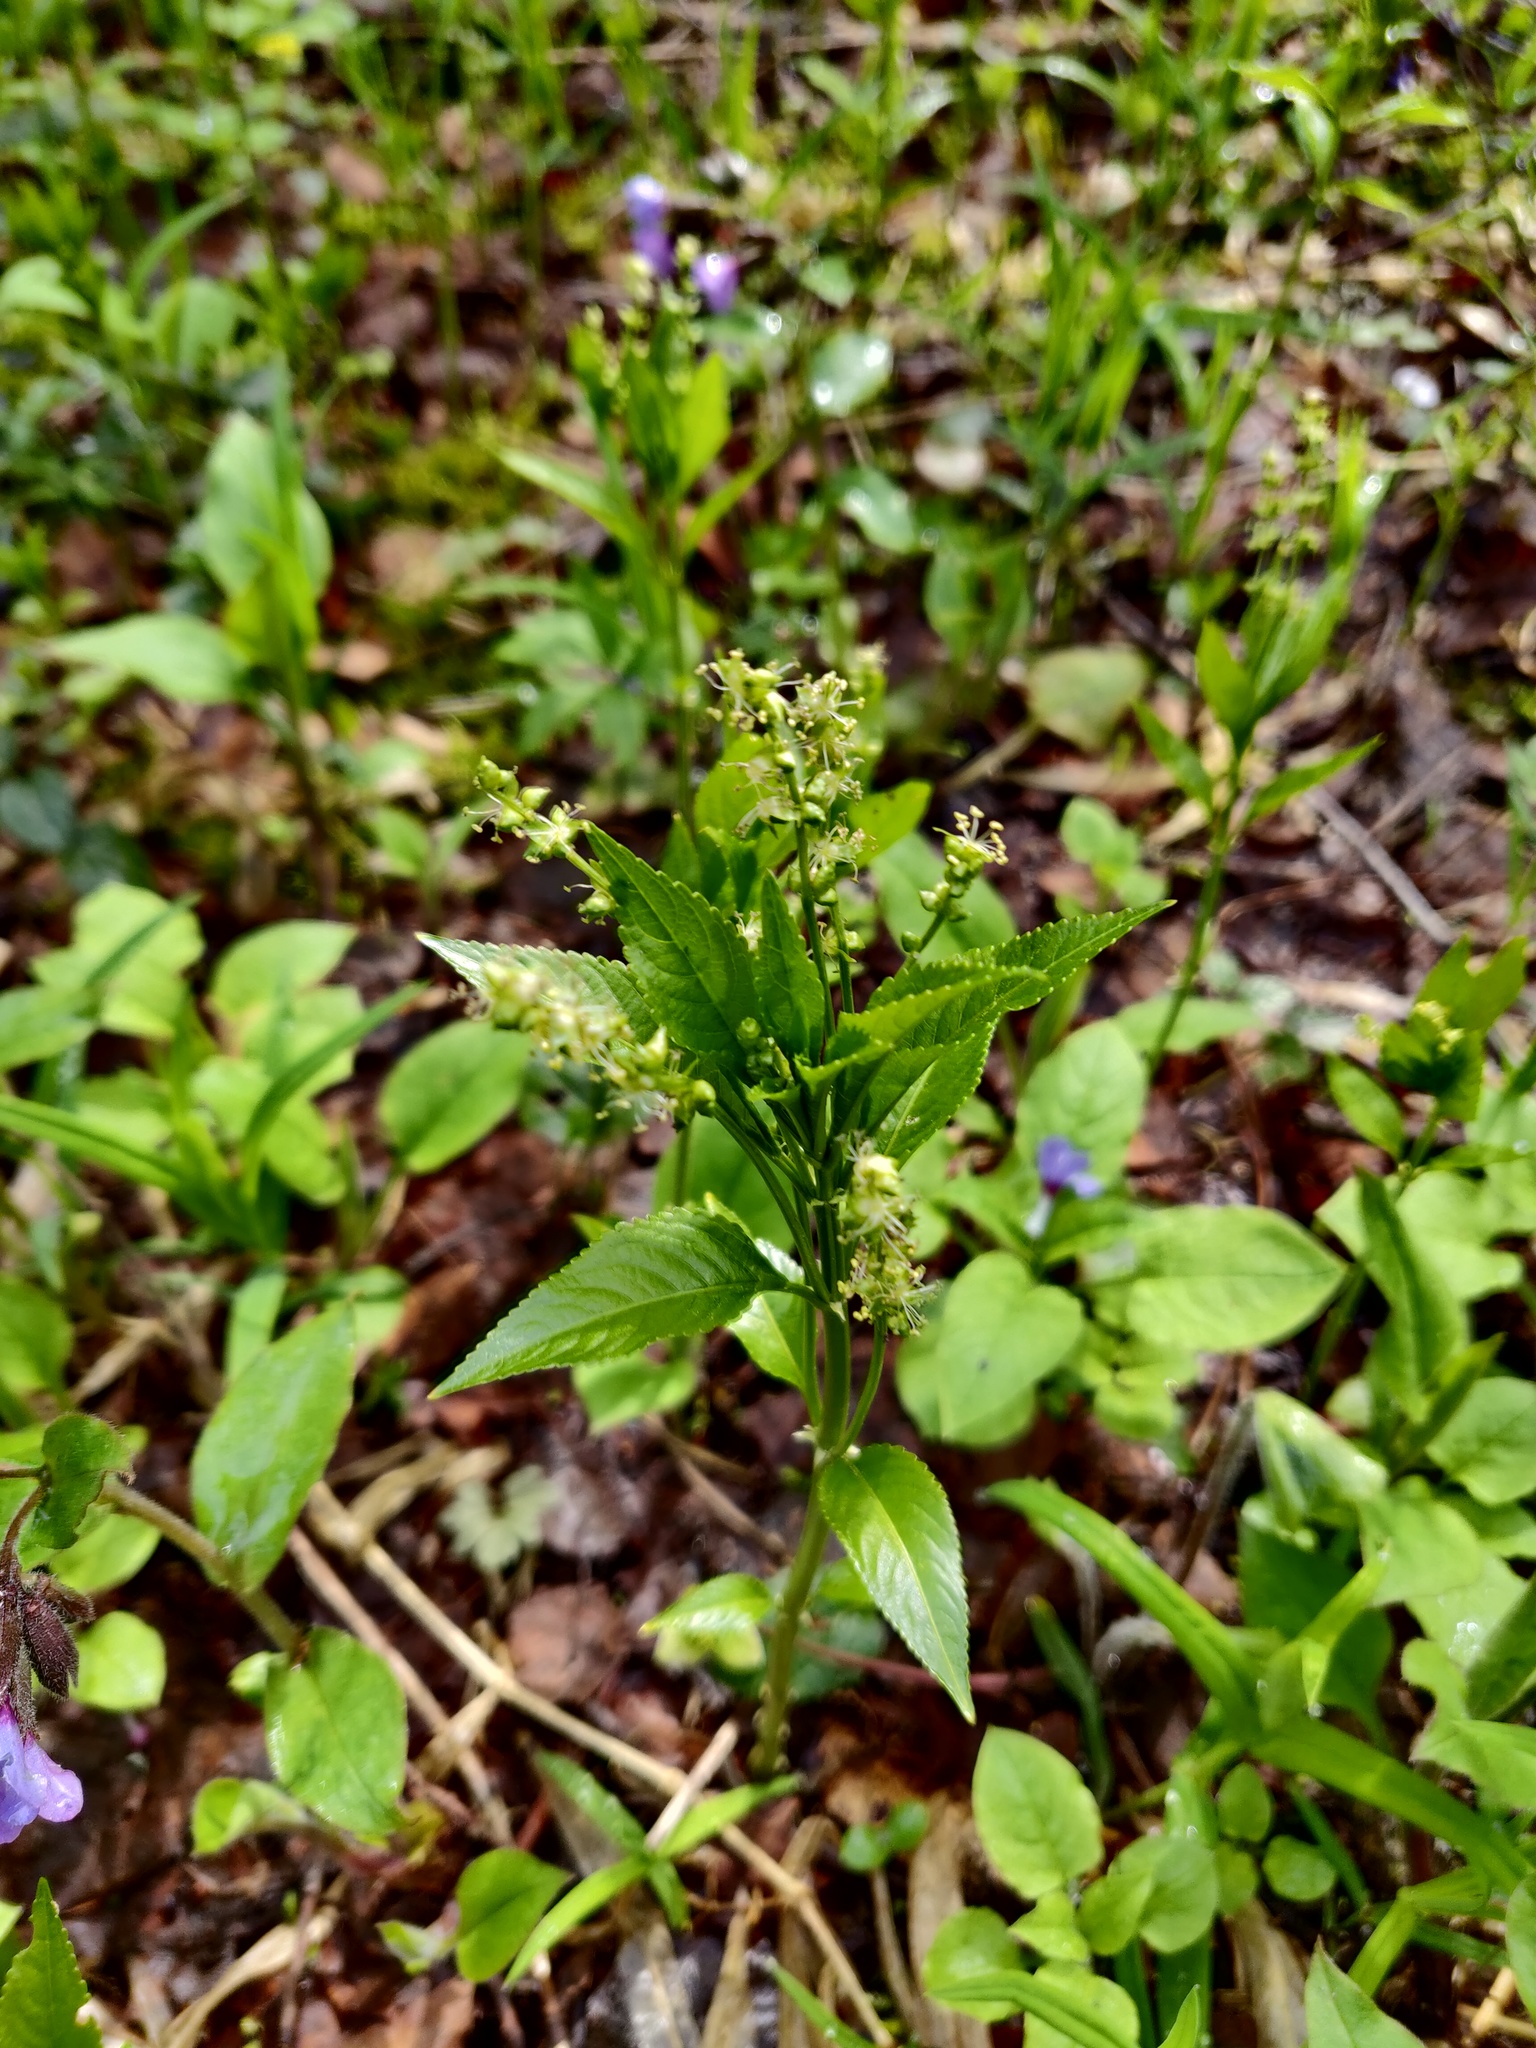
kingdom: Plantae
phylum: Tracheophyta
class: Magnoliopsida
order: Malpighiales
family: Euphorbiaceae
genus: Mercurialis
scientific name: Mercurialis perennis
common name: Dog mercury
